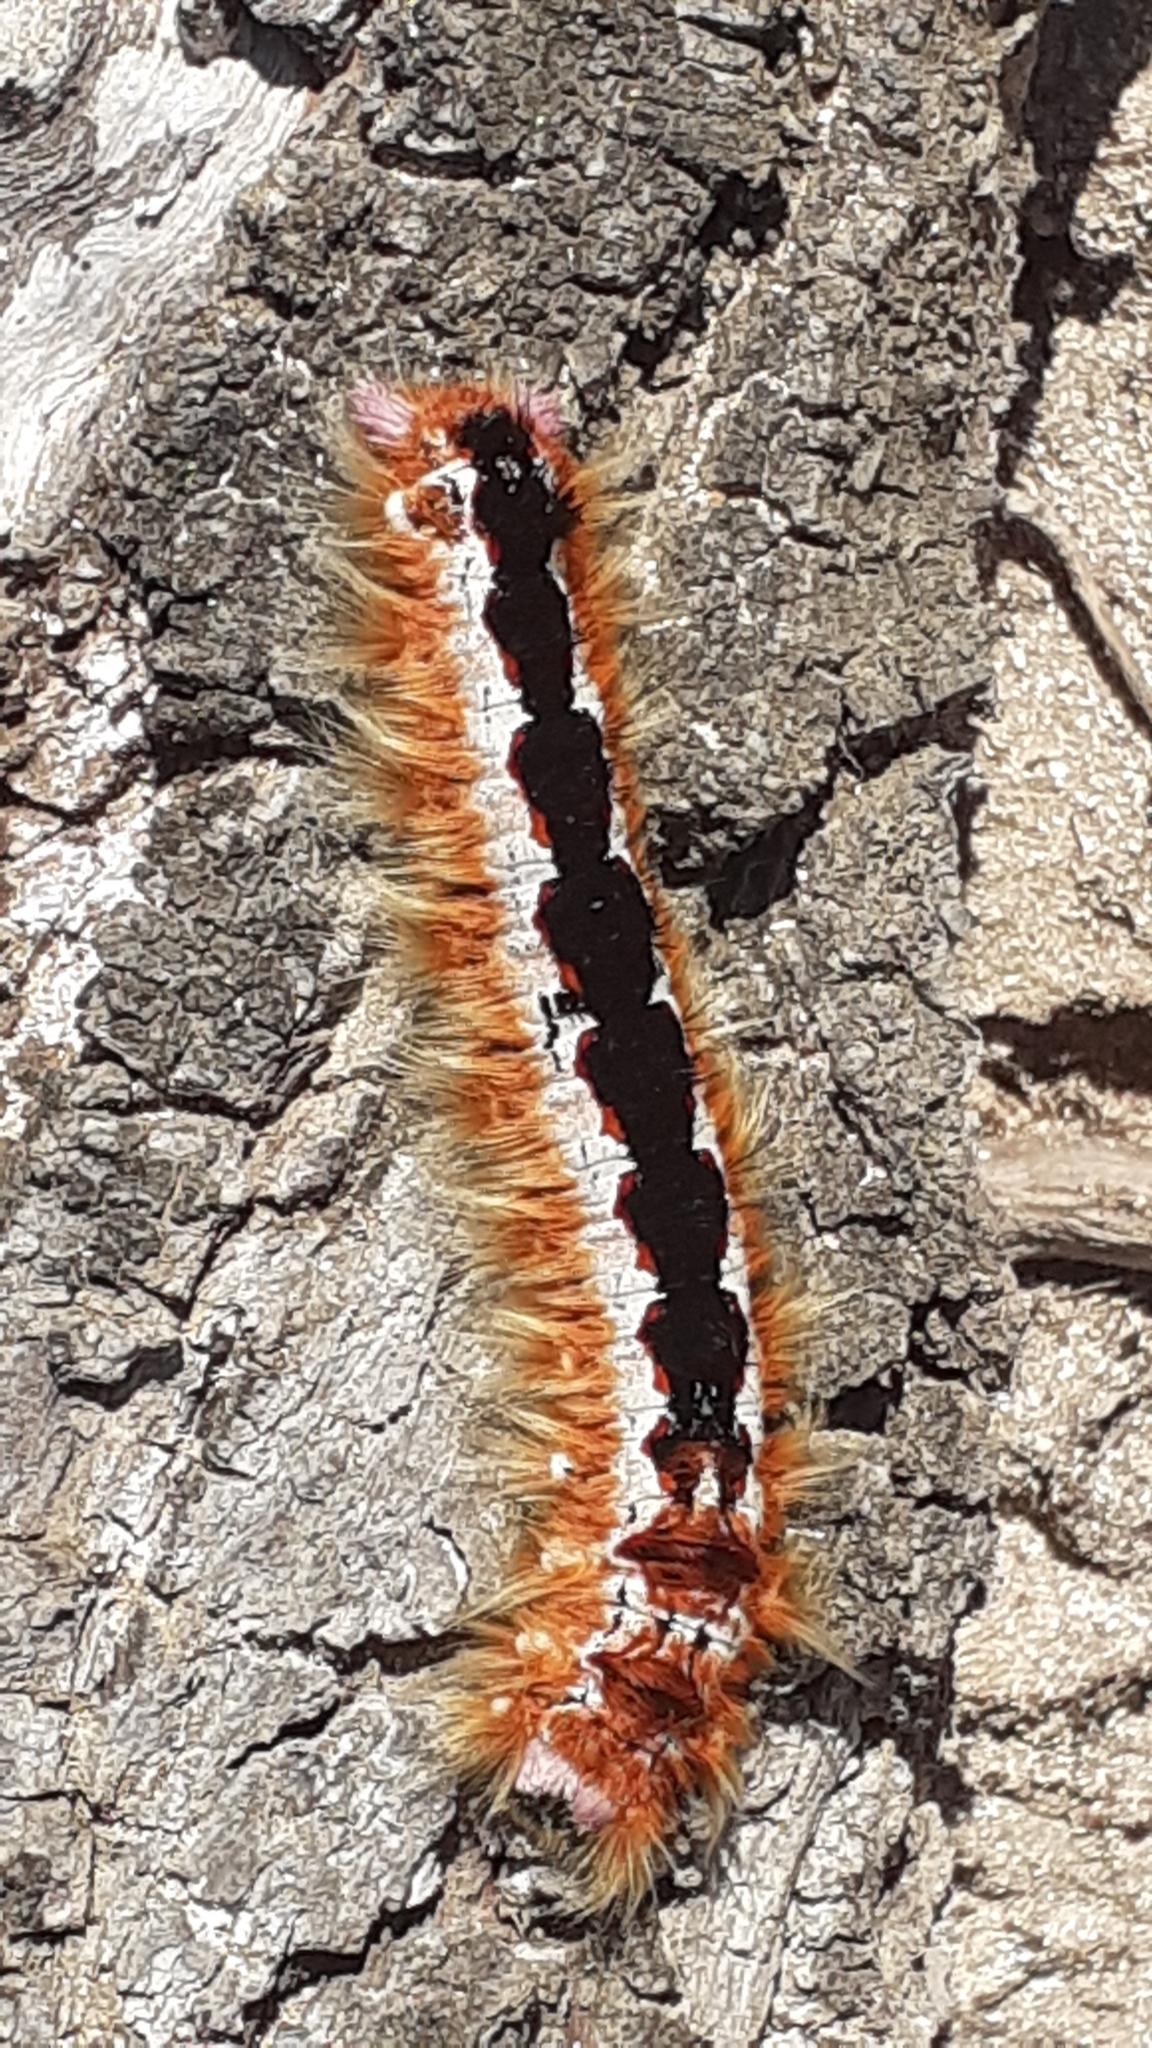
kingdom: Animalia
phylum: Arthropoda
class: Insecta
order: Lepidoptera
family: Lasiocampidae
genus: Eutricha
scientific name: Eutricha capensis
